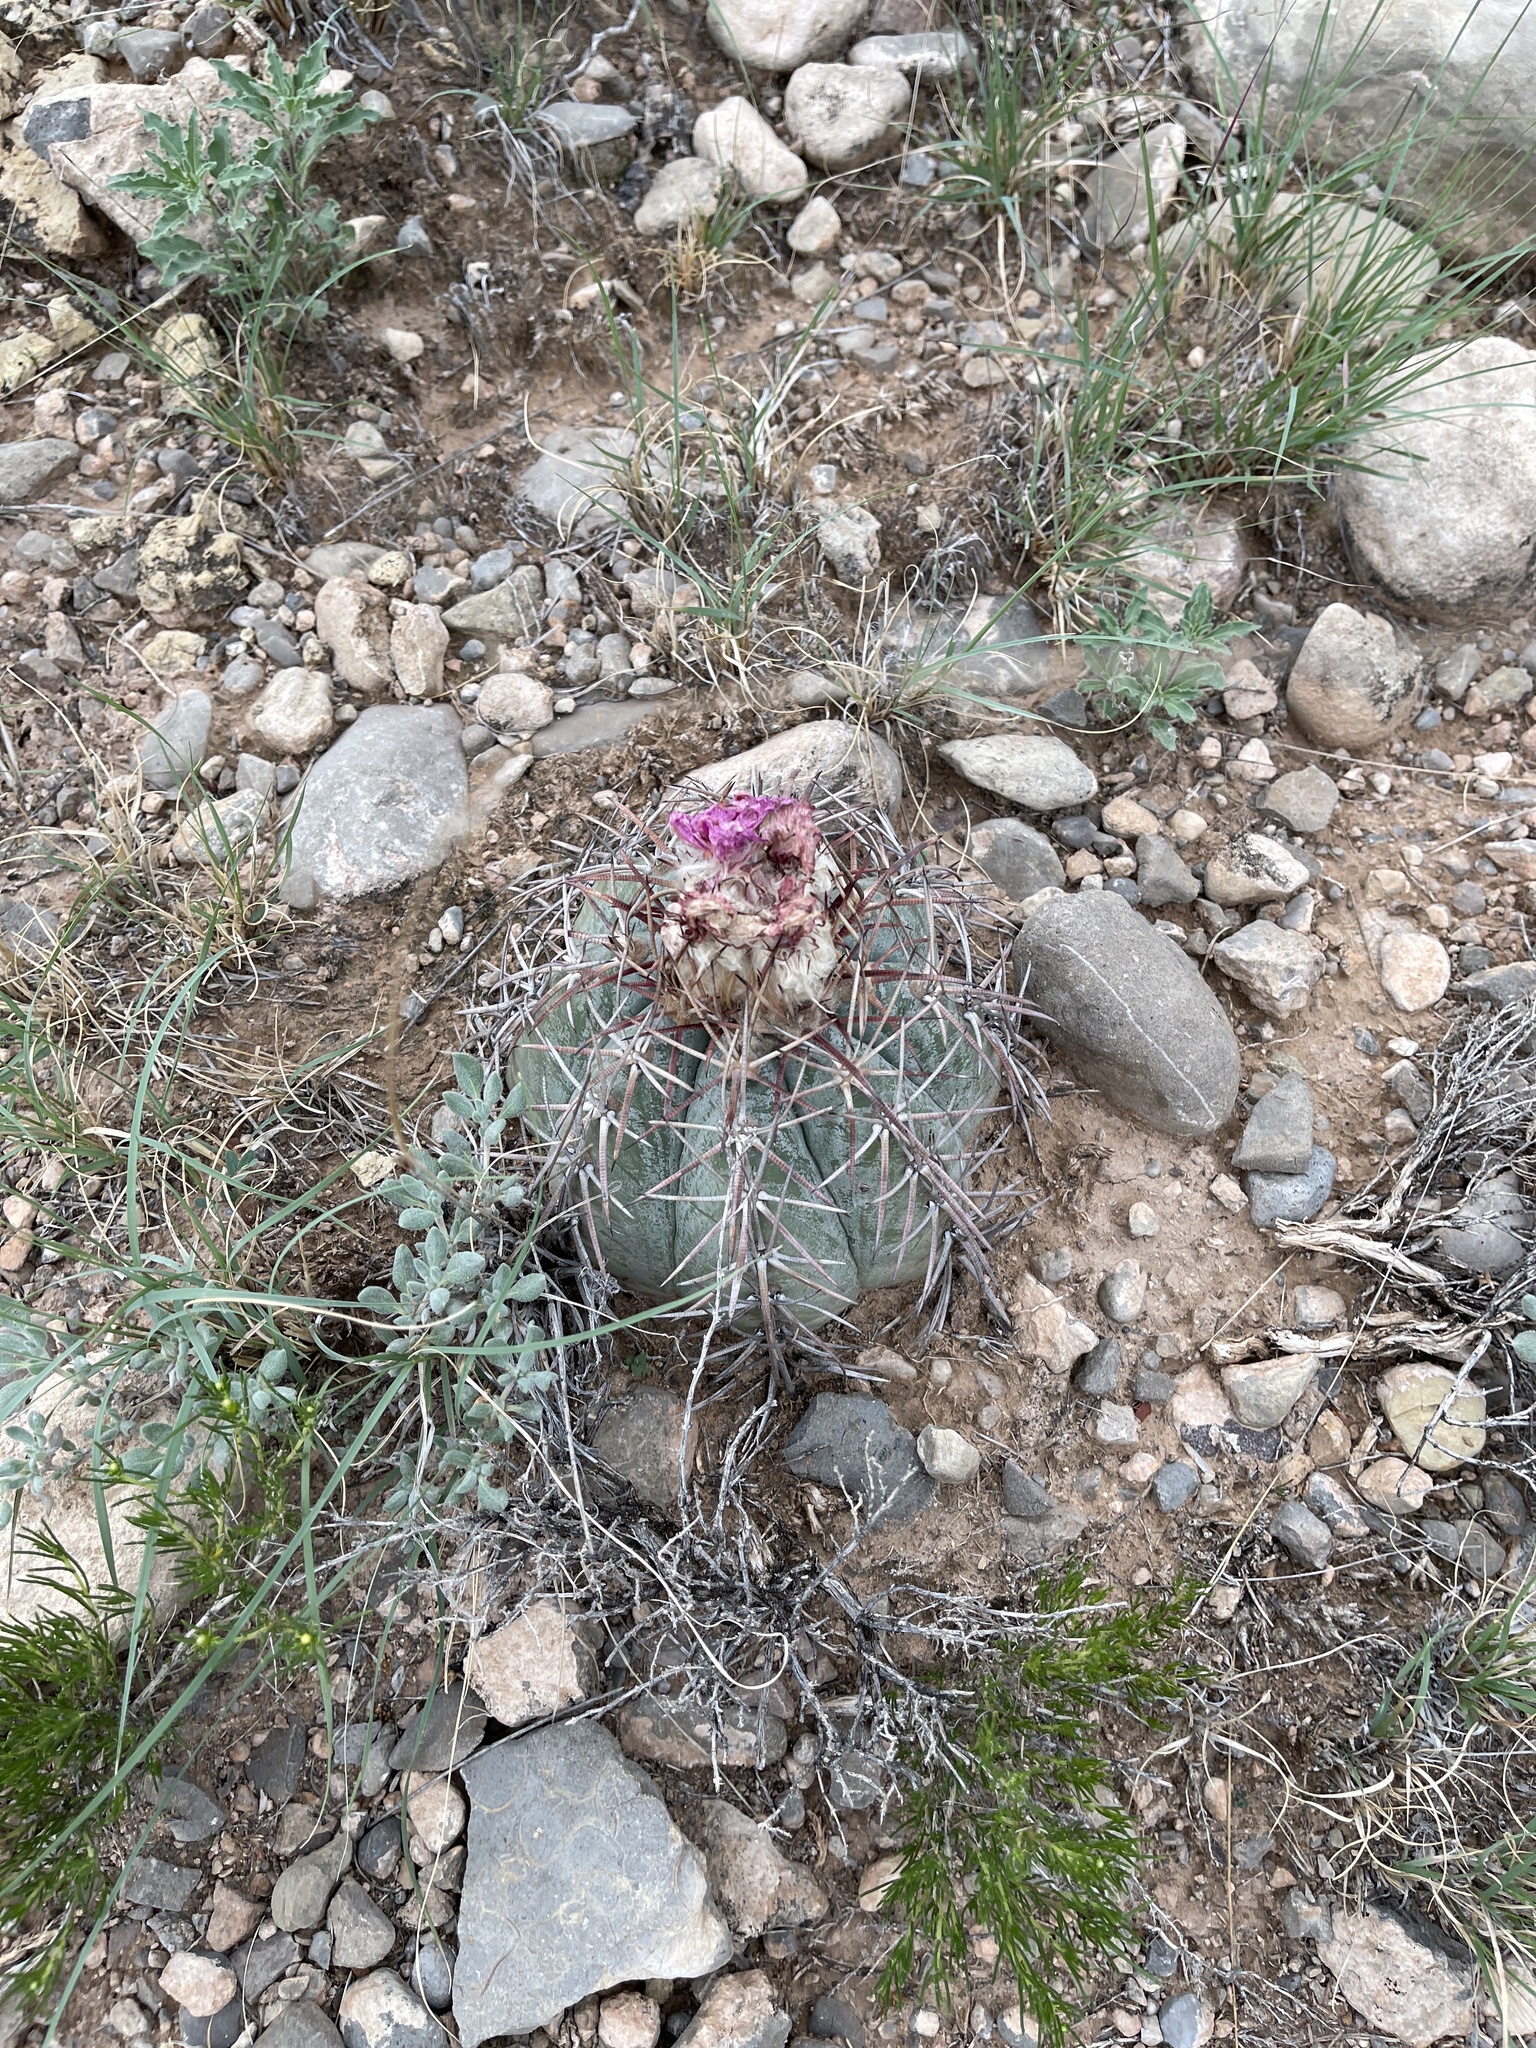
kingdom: Plantae
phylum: Tracheophyta
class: Magnoliopsida
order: Caryophyllales
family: Cactaceae
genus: Echinocactus
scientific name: Echinocactus horizonthalonius
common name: Devilshead
